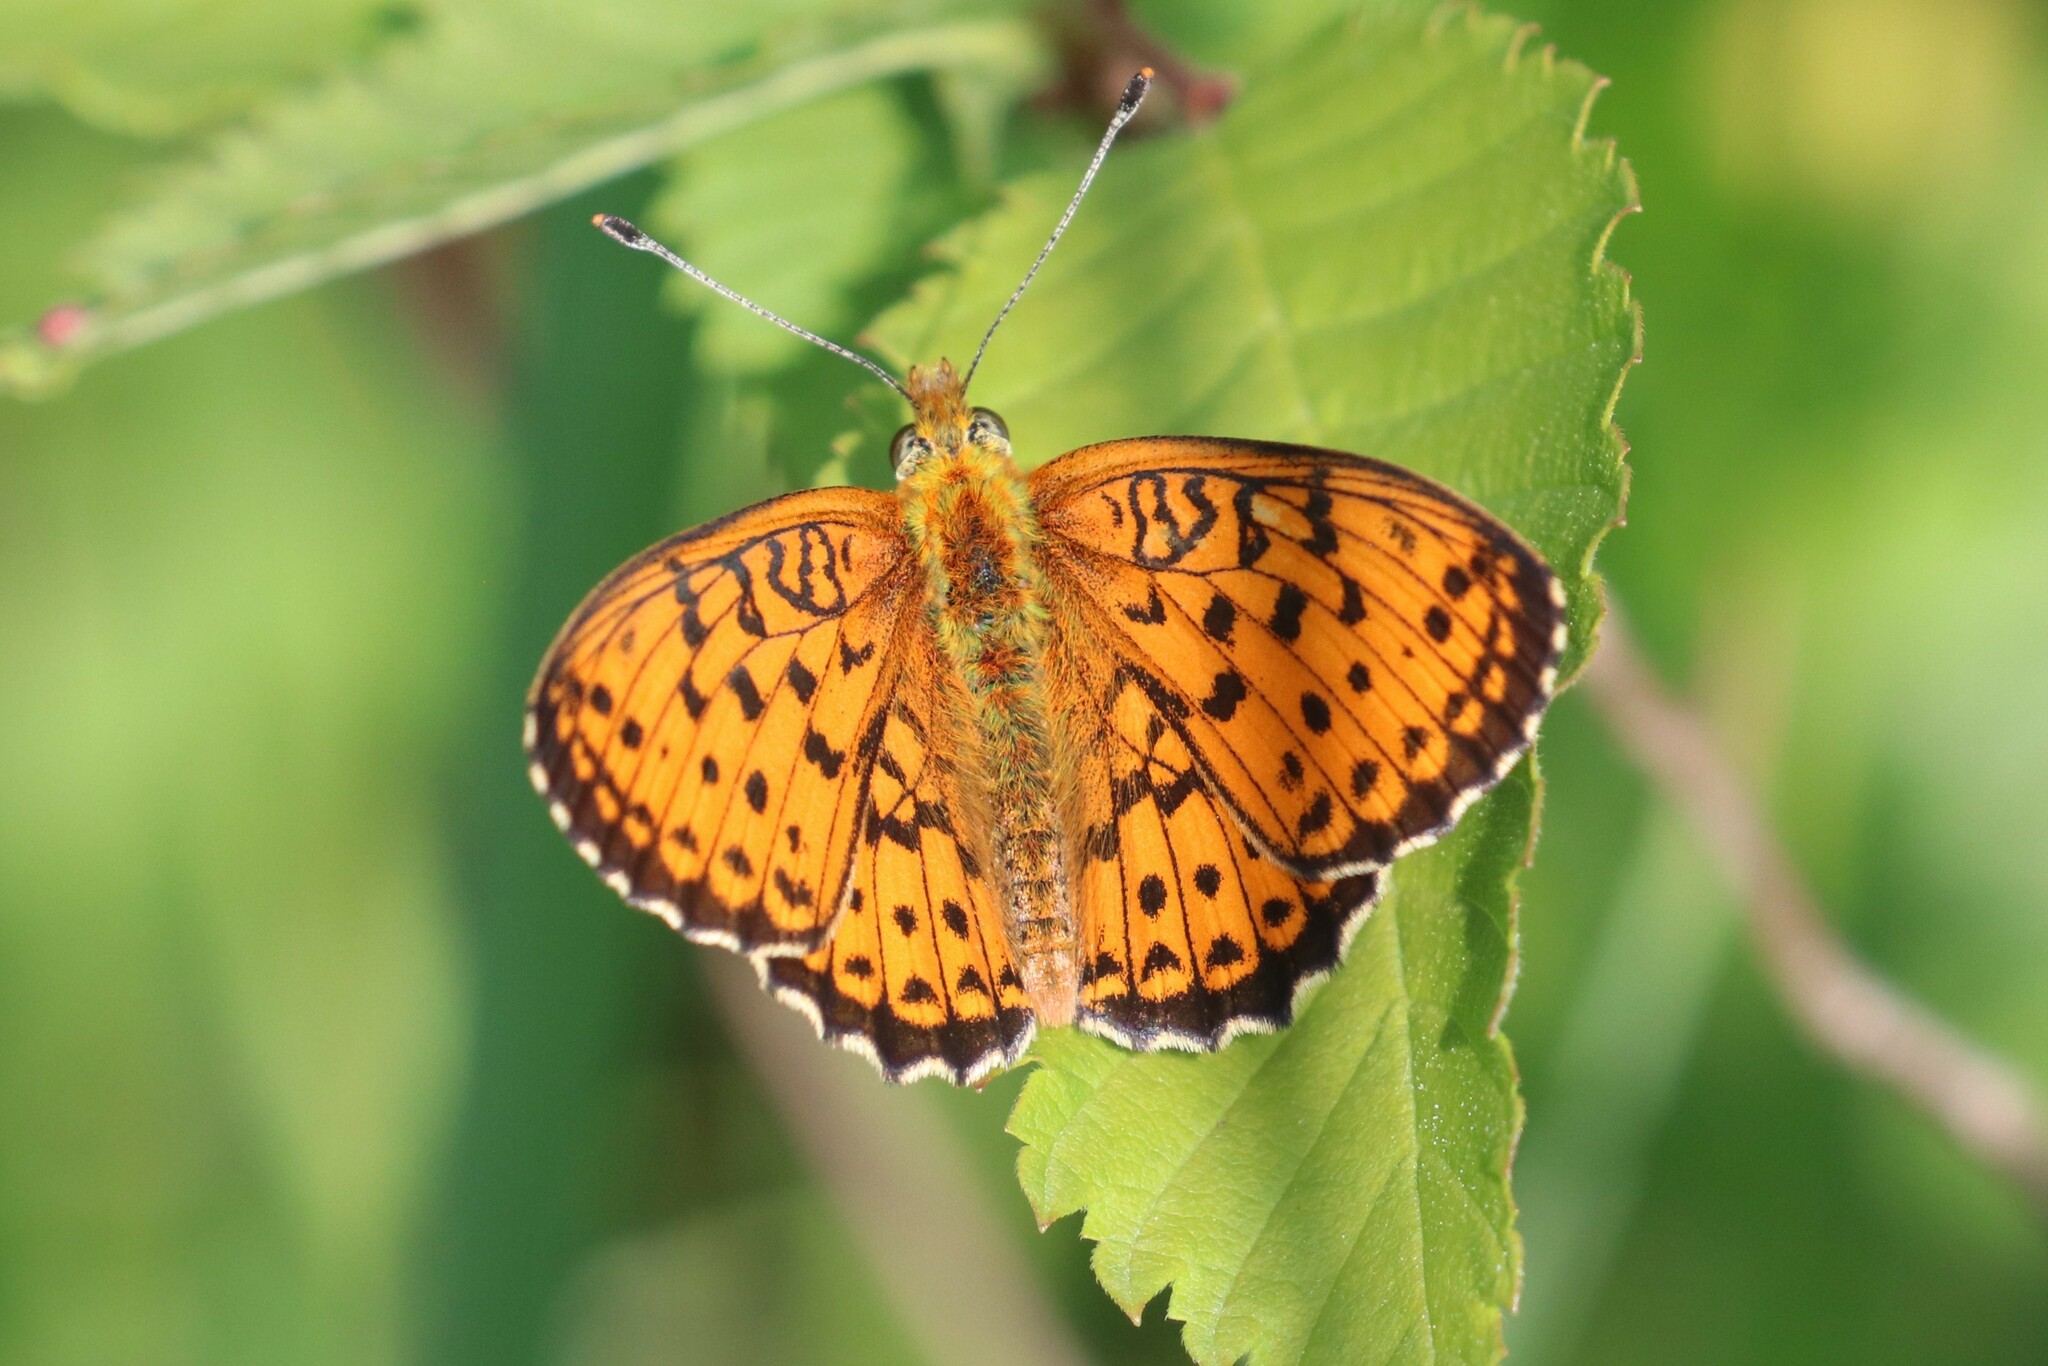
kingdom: Animalia
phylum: Arthropoda
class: Insecta
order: Lepidoptera
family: Nymphalidae
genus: Brenthis
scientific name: Brenthis ino
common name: Lesser marbled fritillary
